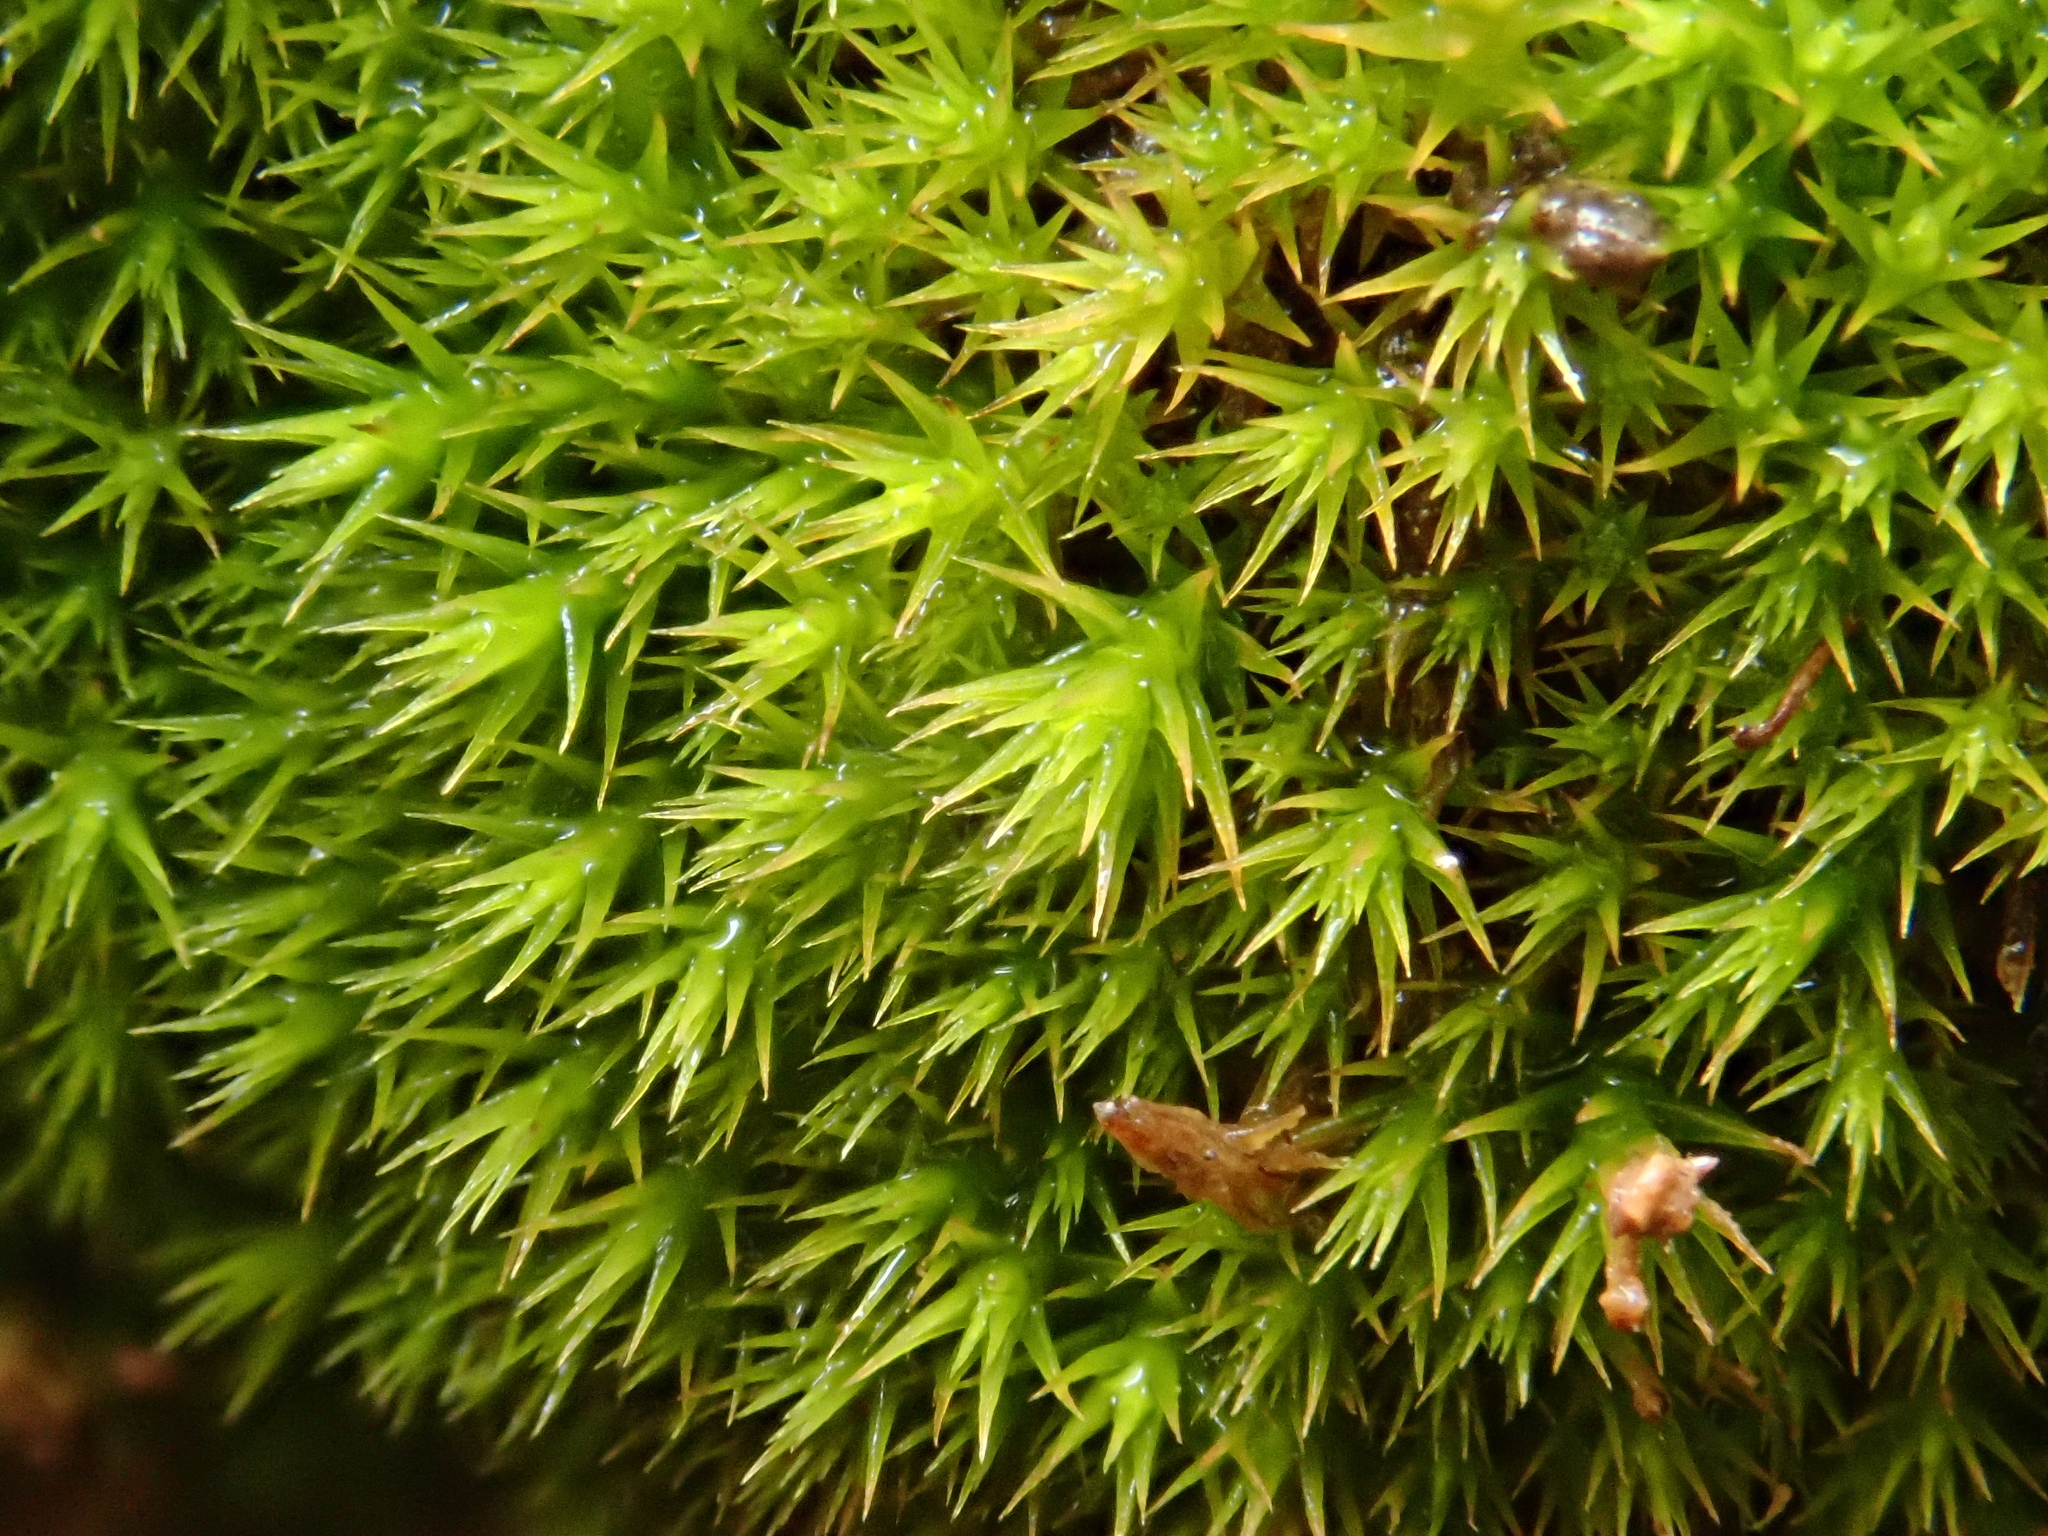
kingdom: Plantae
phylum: Bryophyta
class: Bryopsida
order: Dicranales
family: Ditrichaceae
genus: Cheilothela
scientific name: Cheilothela chloropus
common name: Rabbit moss
